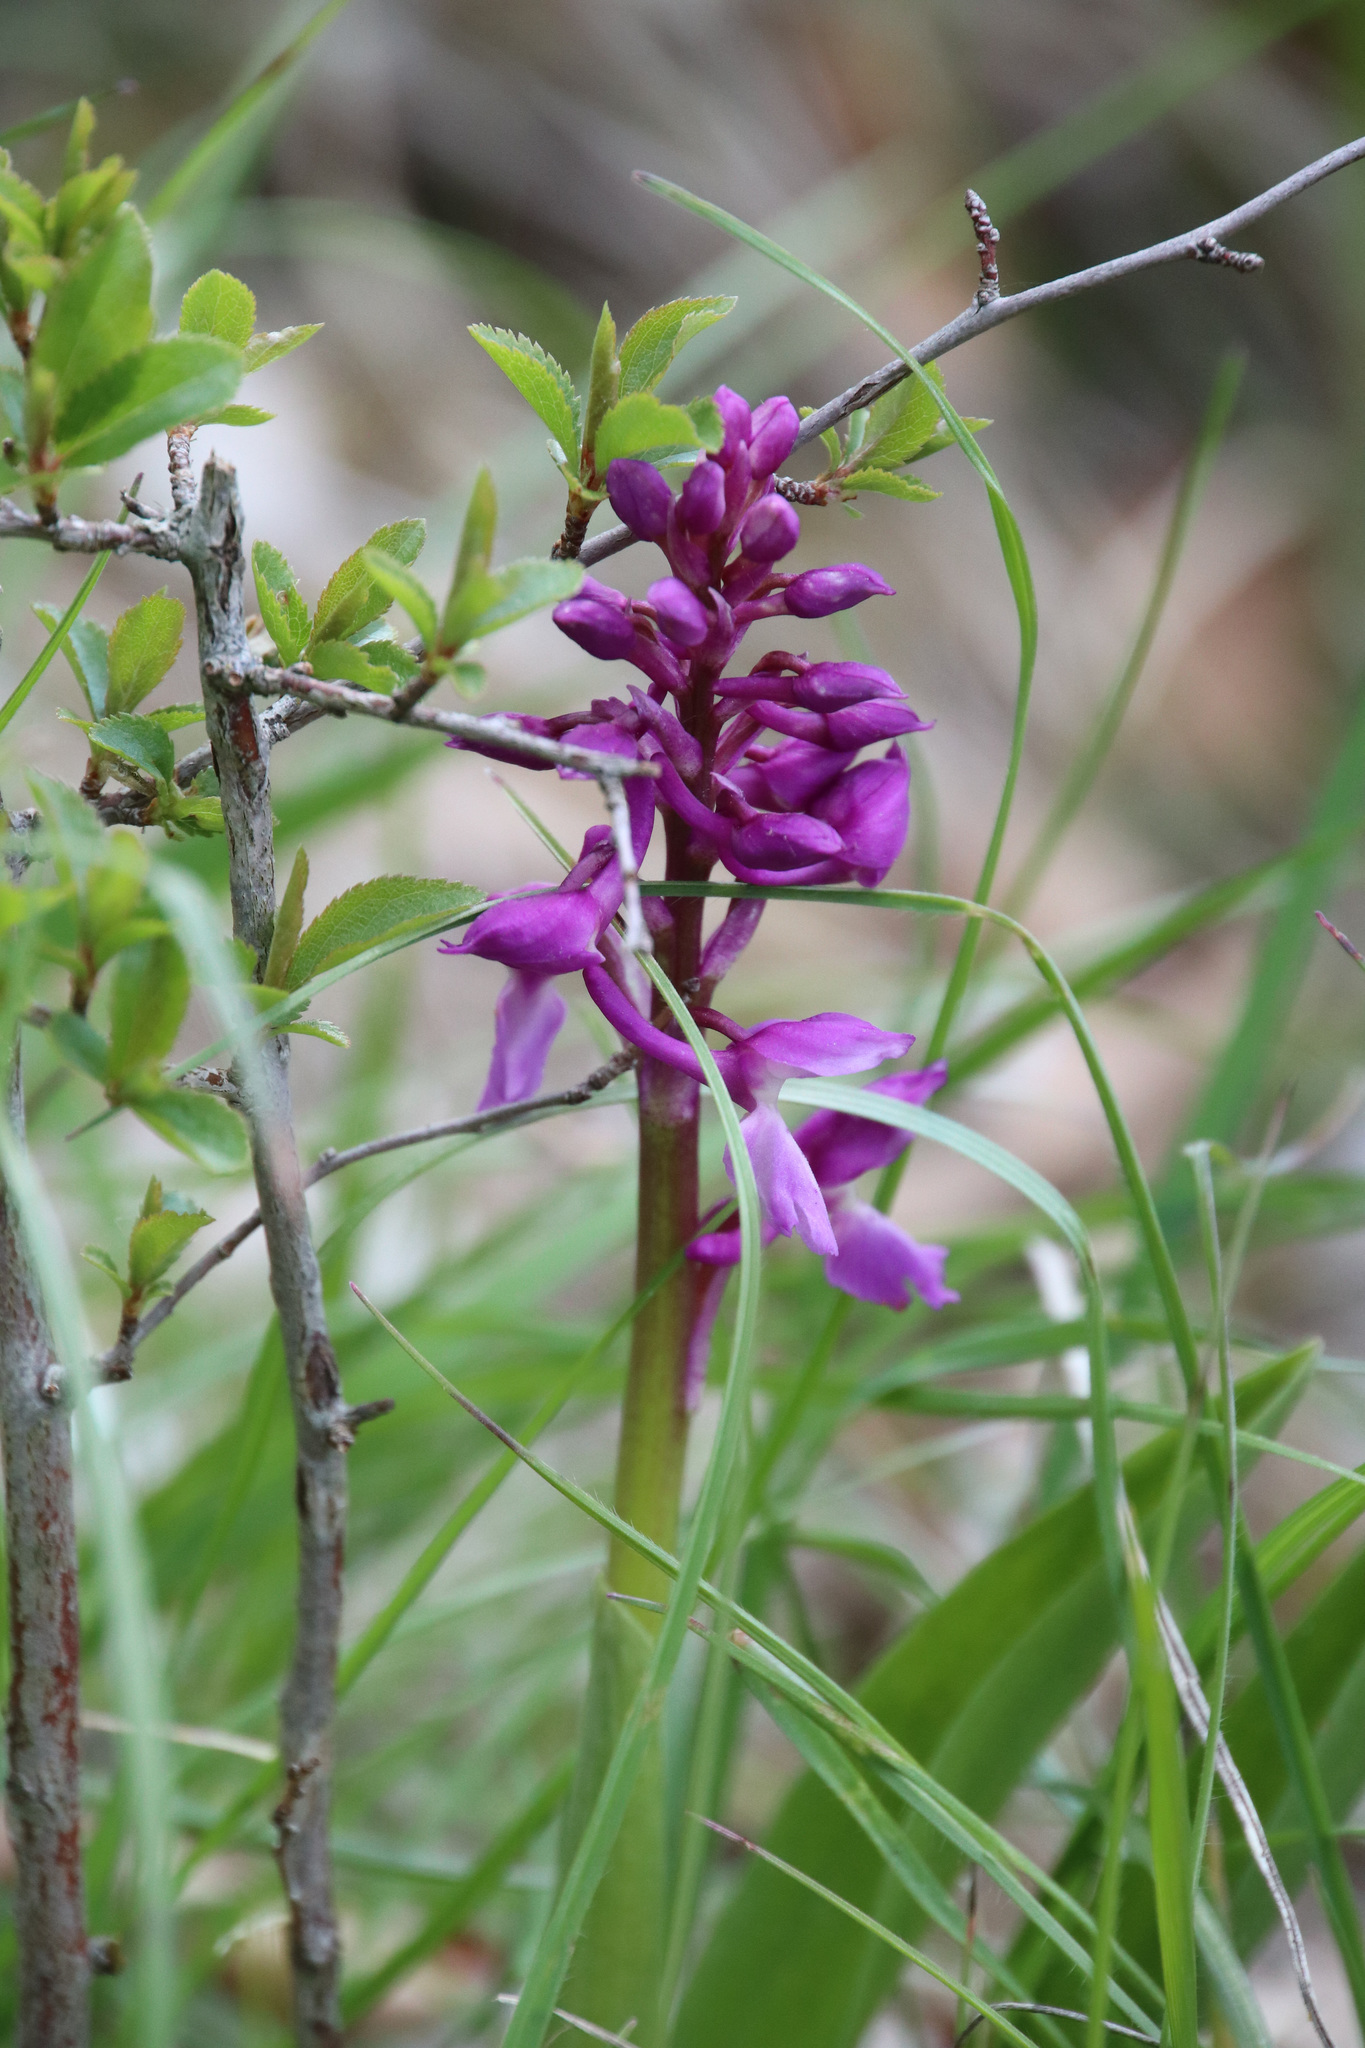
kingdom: Plantae
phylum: Tracheophyta
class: Liliopsida
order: Asparagales
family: Orchidaceae
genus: Orchis
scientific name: Orchis mascula
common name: Early-purple orchid
